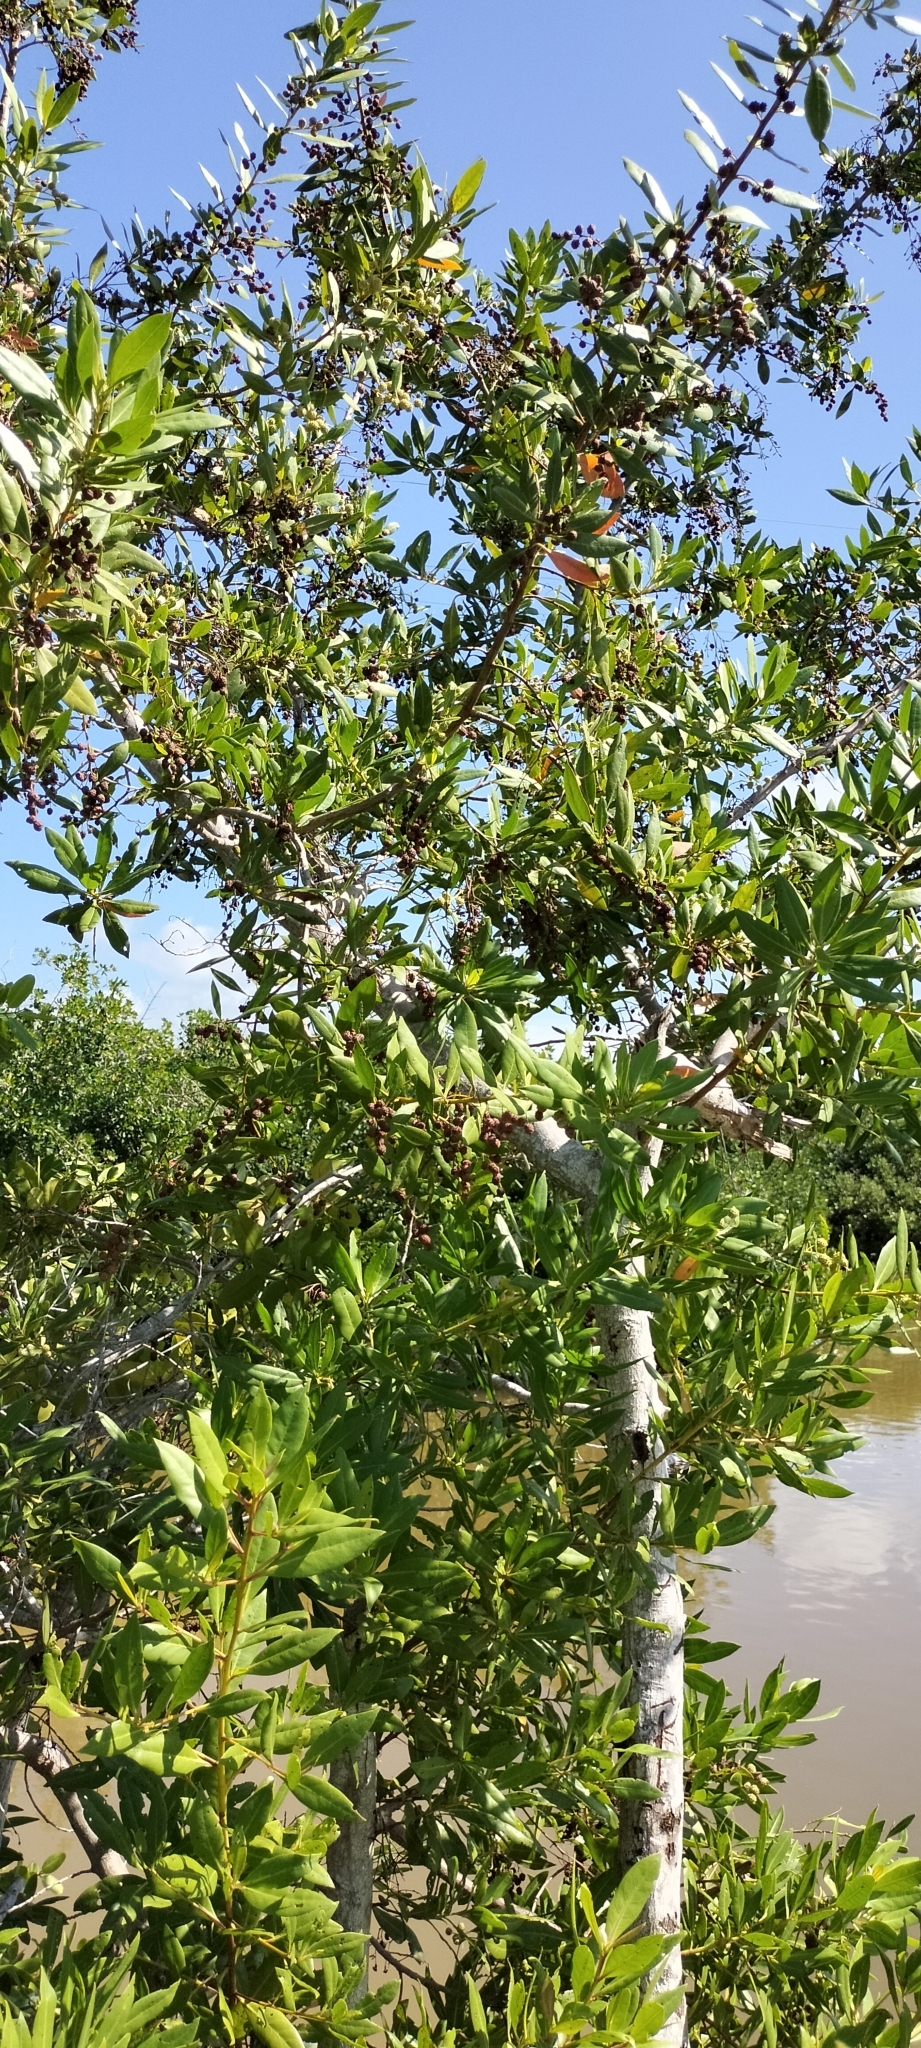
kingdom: Plantae
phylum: Tracheophyta
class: Magnoliopsida
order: Myrtales
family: Combretaceae
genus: Conocarpus
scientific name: Conocarpus erectus
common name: Button mangrove
